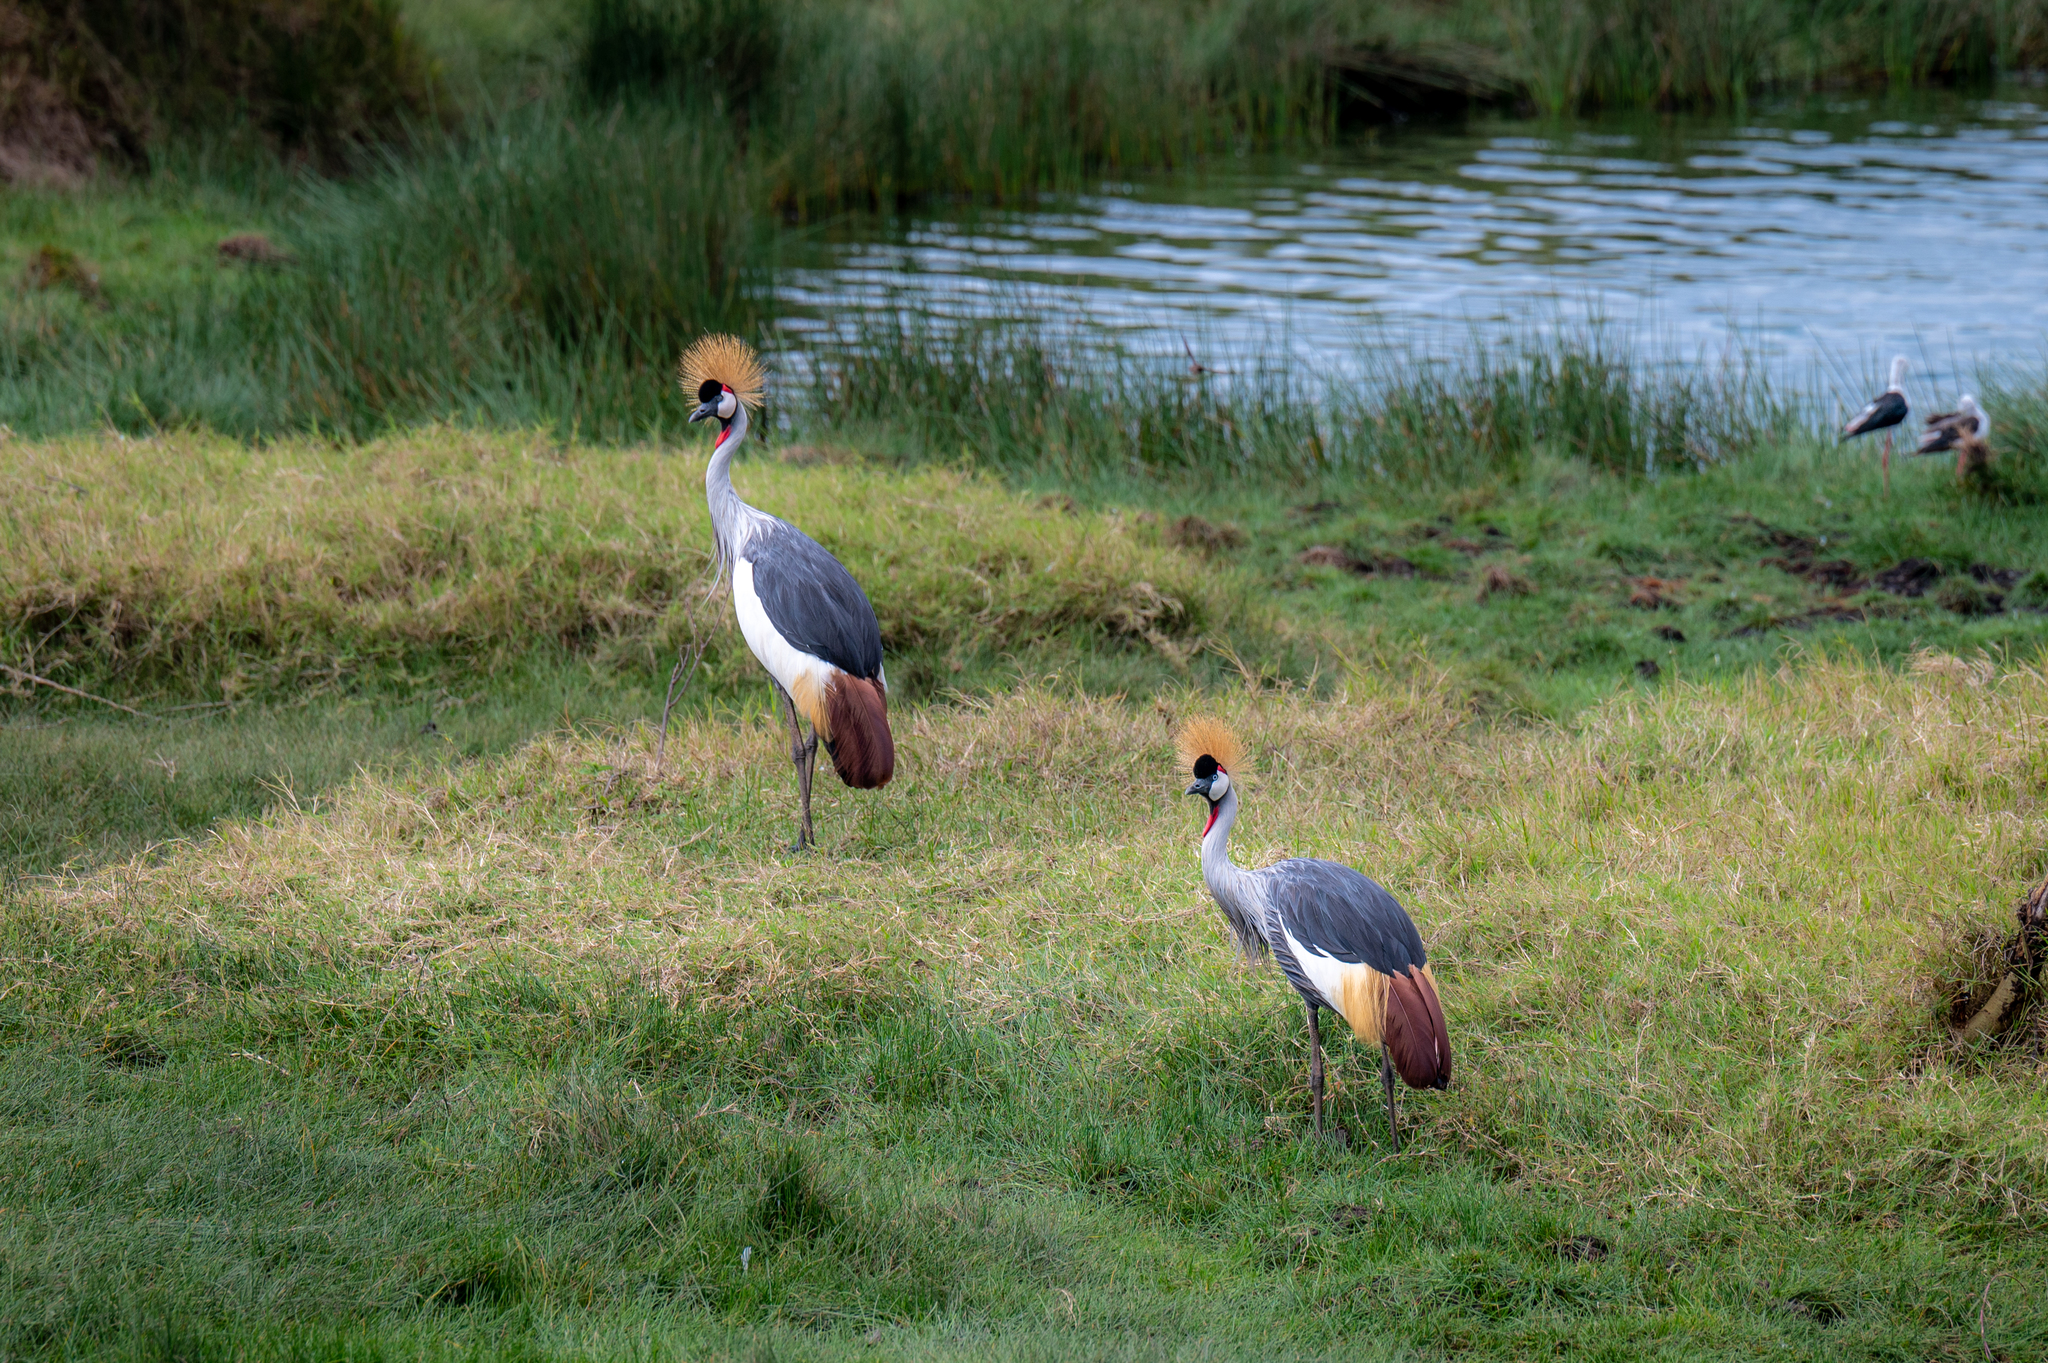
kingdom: Animalia
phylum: Chordata
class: Aves
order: Gruiformes
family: Gruidae
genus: Balearica
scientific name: Balearica regulorum
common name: Grey crowned crane
